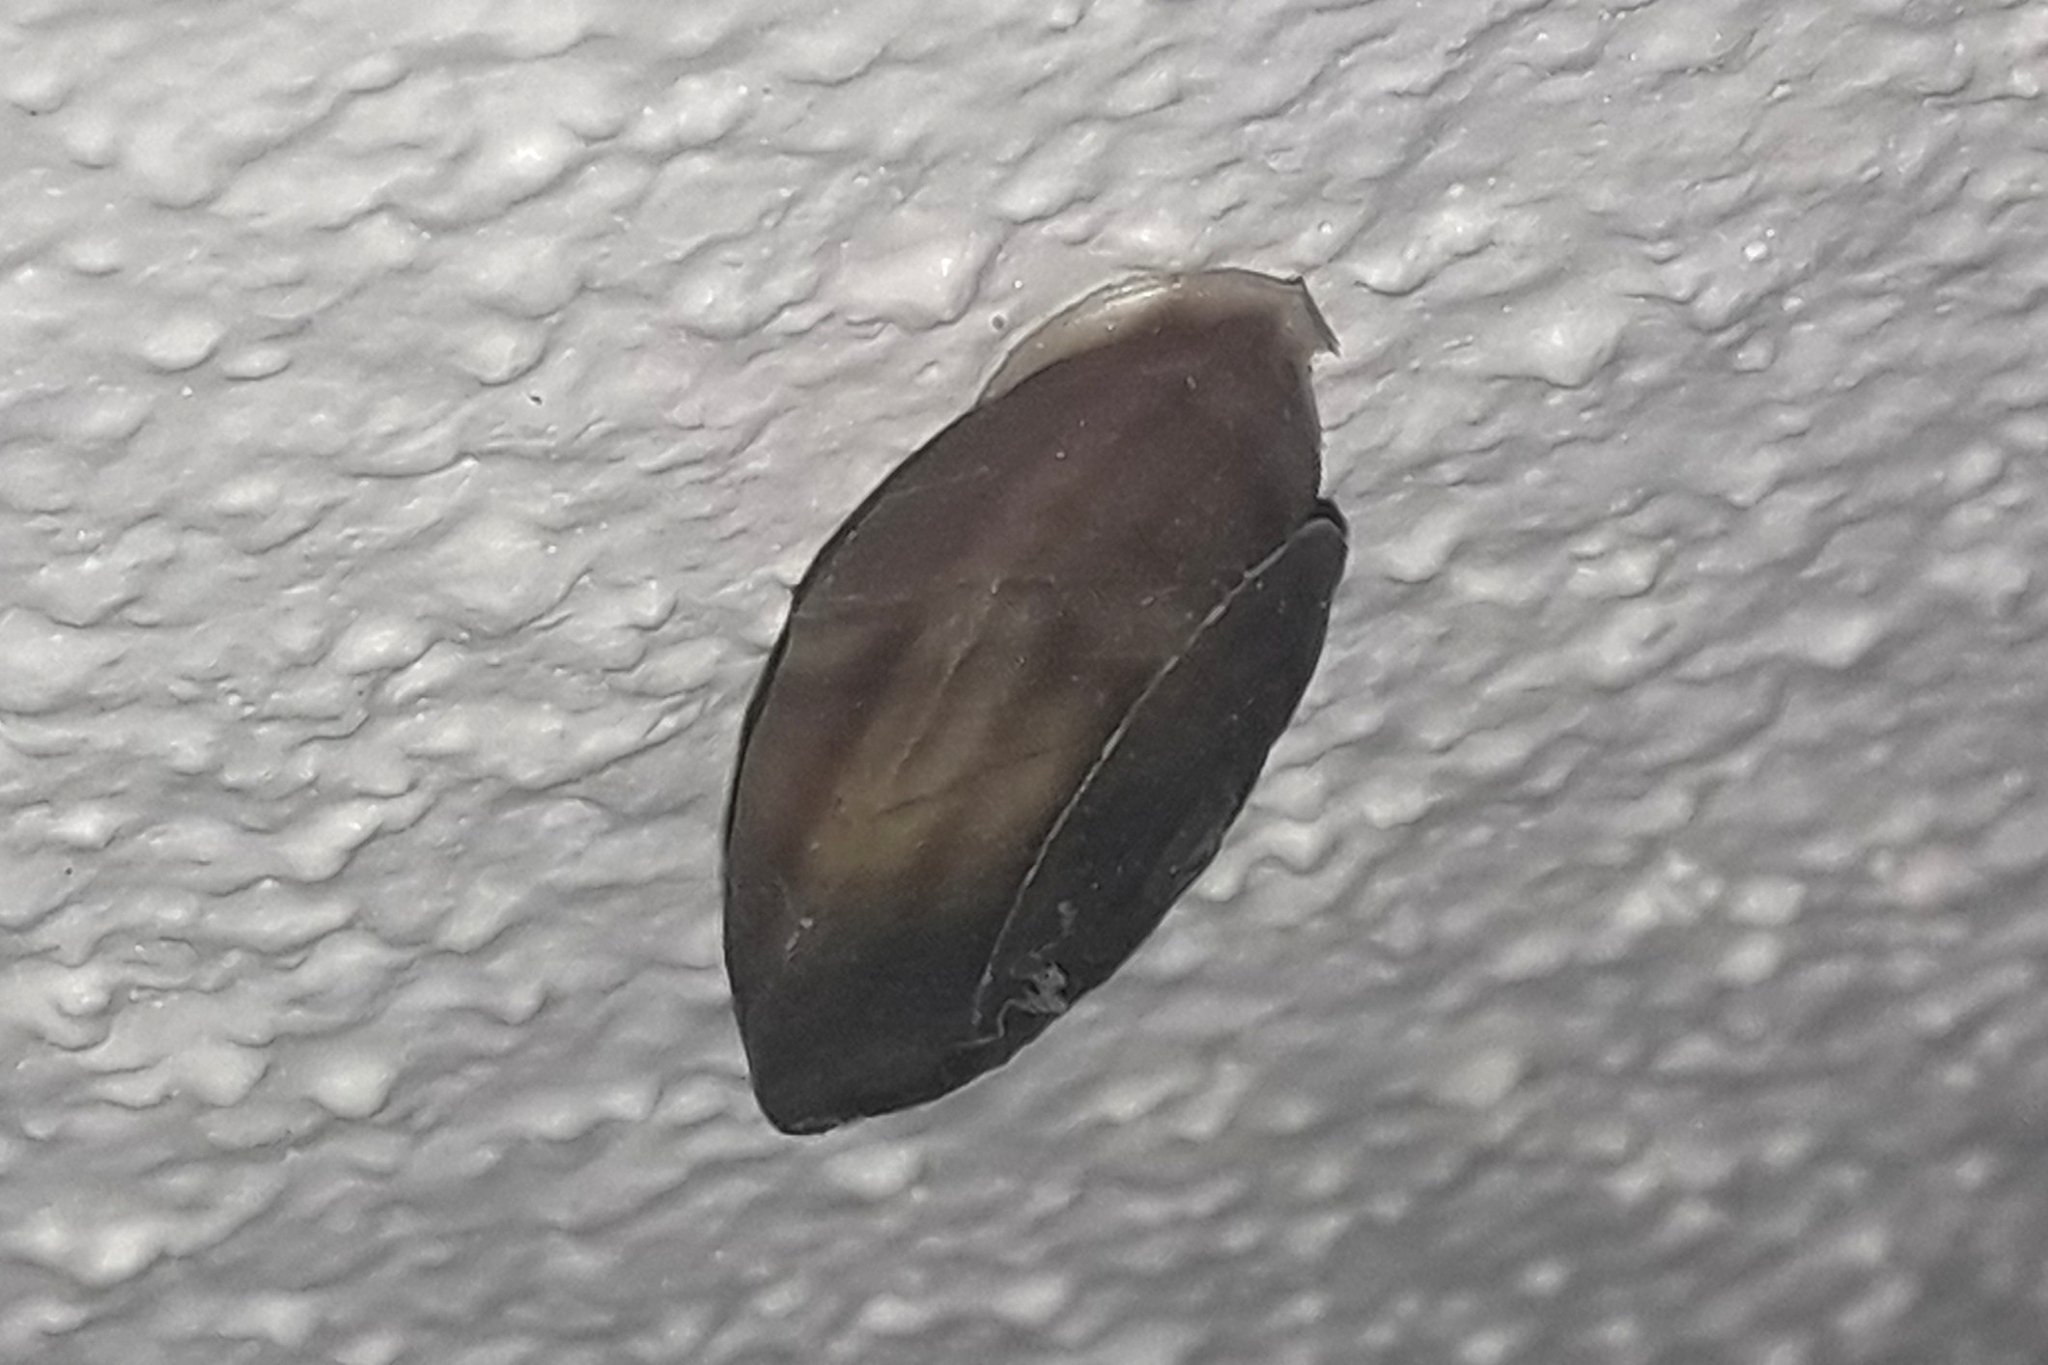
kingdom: Animalia
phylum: Mollusca
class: Gastropoda
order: Stylommatophora
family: Helicidae
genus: Helicigona
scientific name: Helicigona lapicida
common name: Lapidary snail
